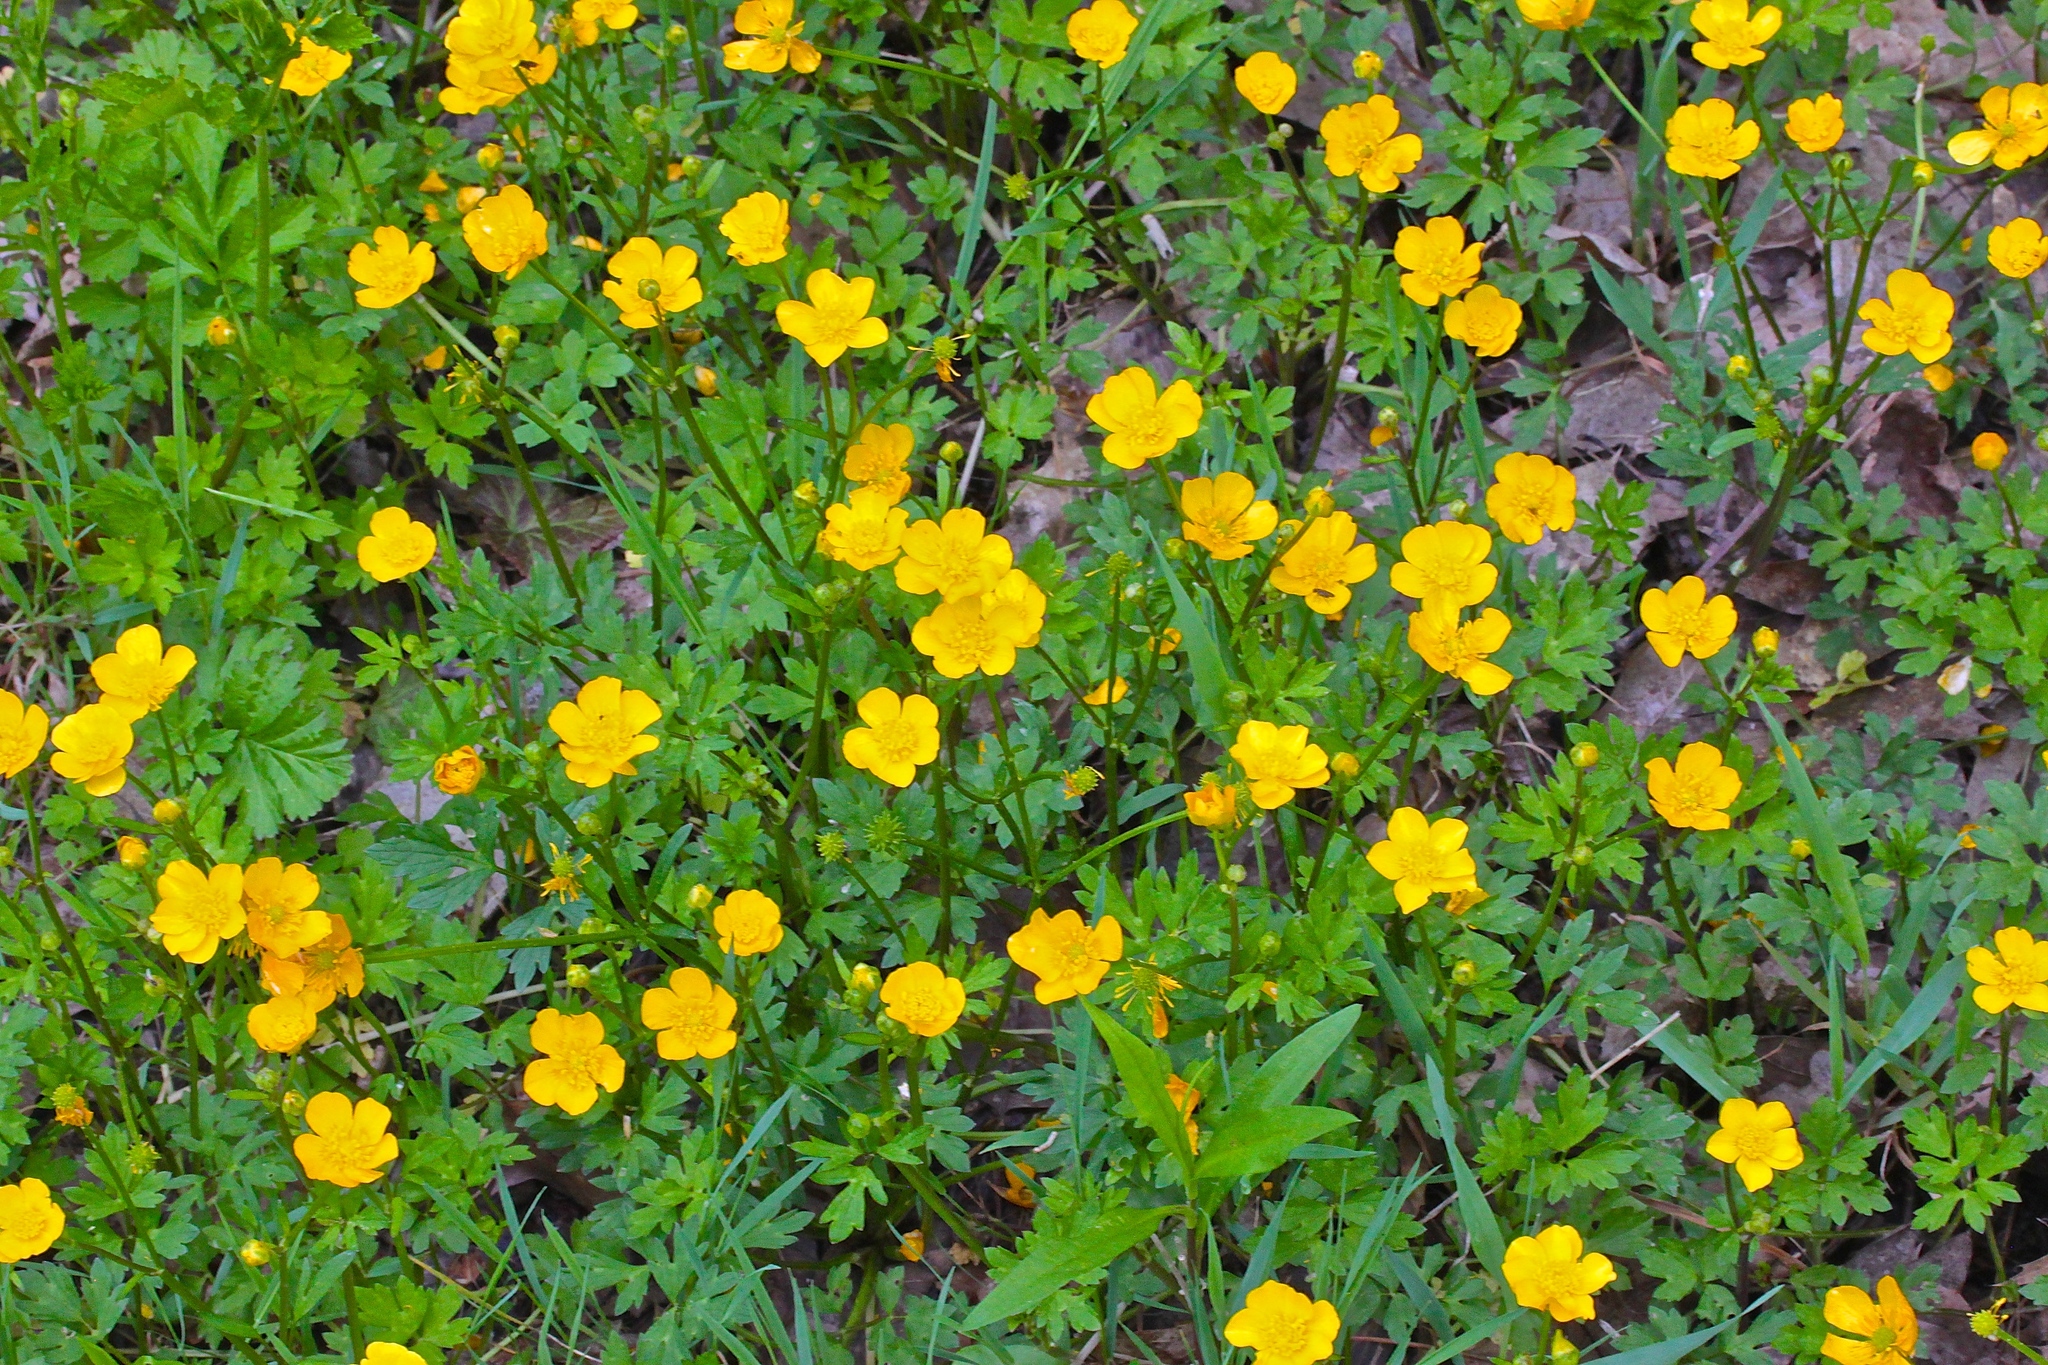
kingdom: Plantae
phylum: Tracheophyta
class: Magnoliopsida
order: Ranunculales
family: Ranunculaceae
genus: Ranunculus
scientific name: Ranunculus repens
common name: Creeping buttercup
